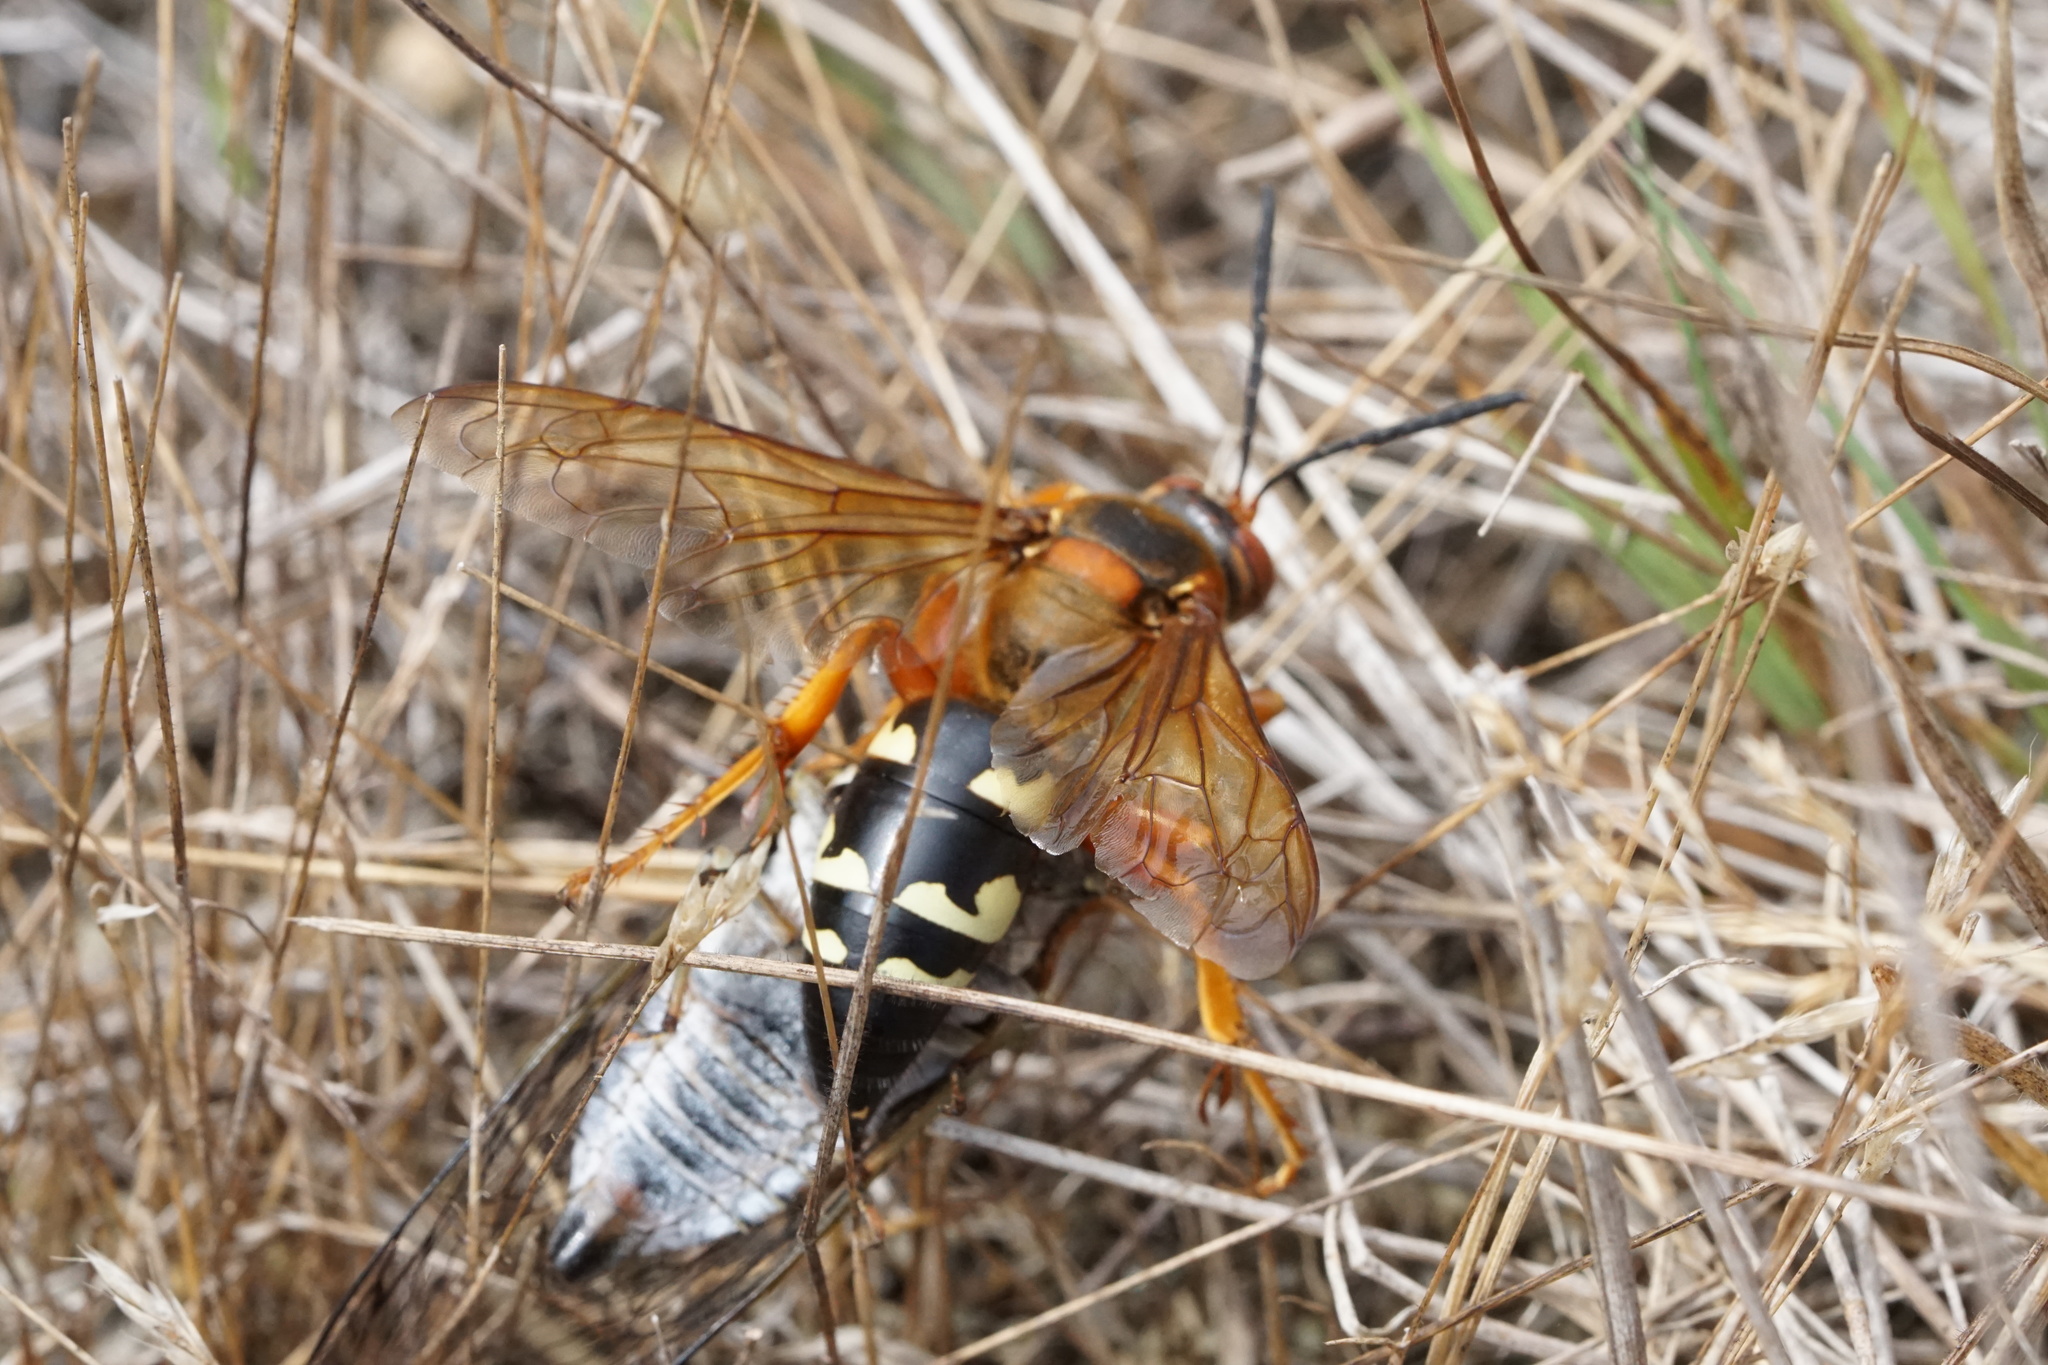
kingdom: Animalia
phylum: Arthropoda
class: Insecta
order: Hymenoptera
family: Crabronidae
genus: Sphecius
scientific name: Sphecius speciosus
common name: Cicada killer
